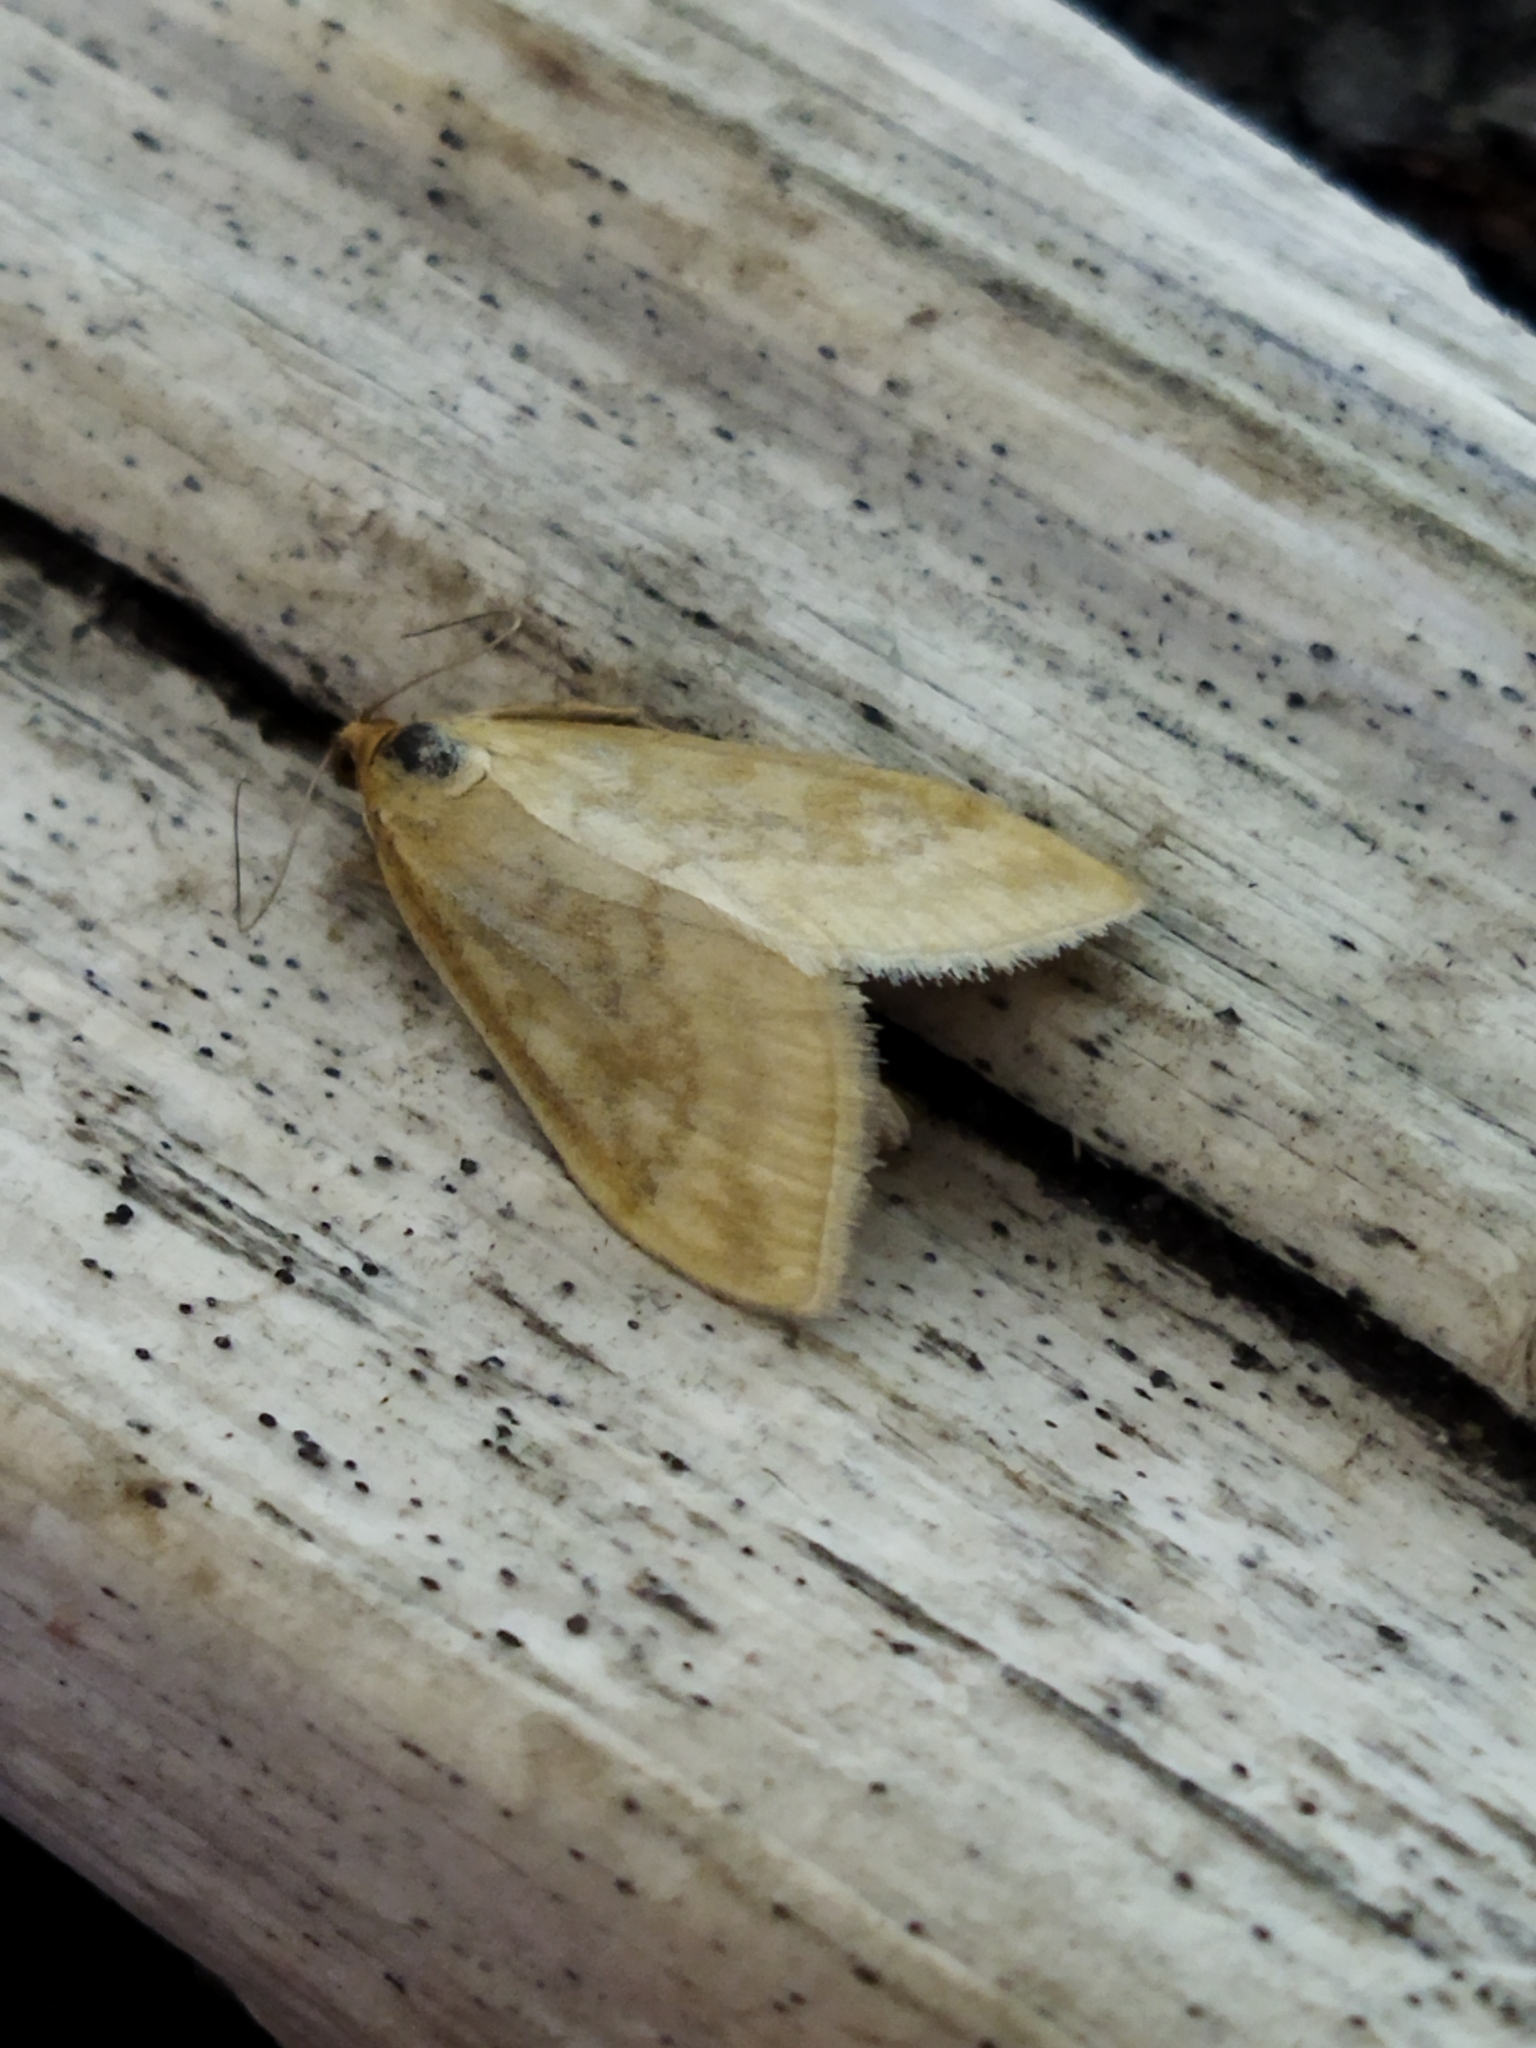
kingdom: Animalia
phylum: Arthropoda
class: Insecta
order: Lepidoptera
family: Crambidae
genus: Sitochroa
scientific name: Sitochroa verticalis
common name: Lesser pearl
